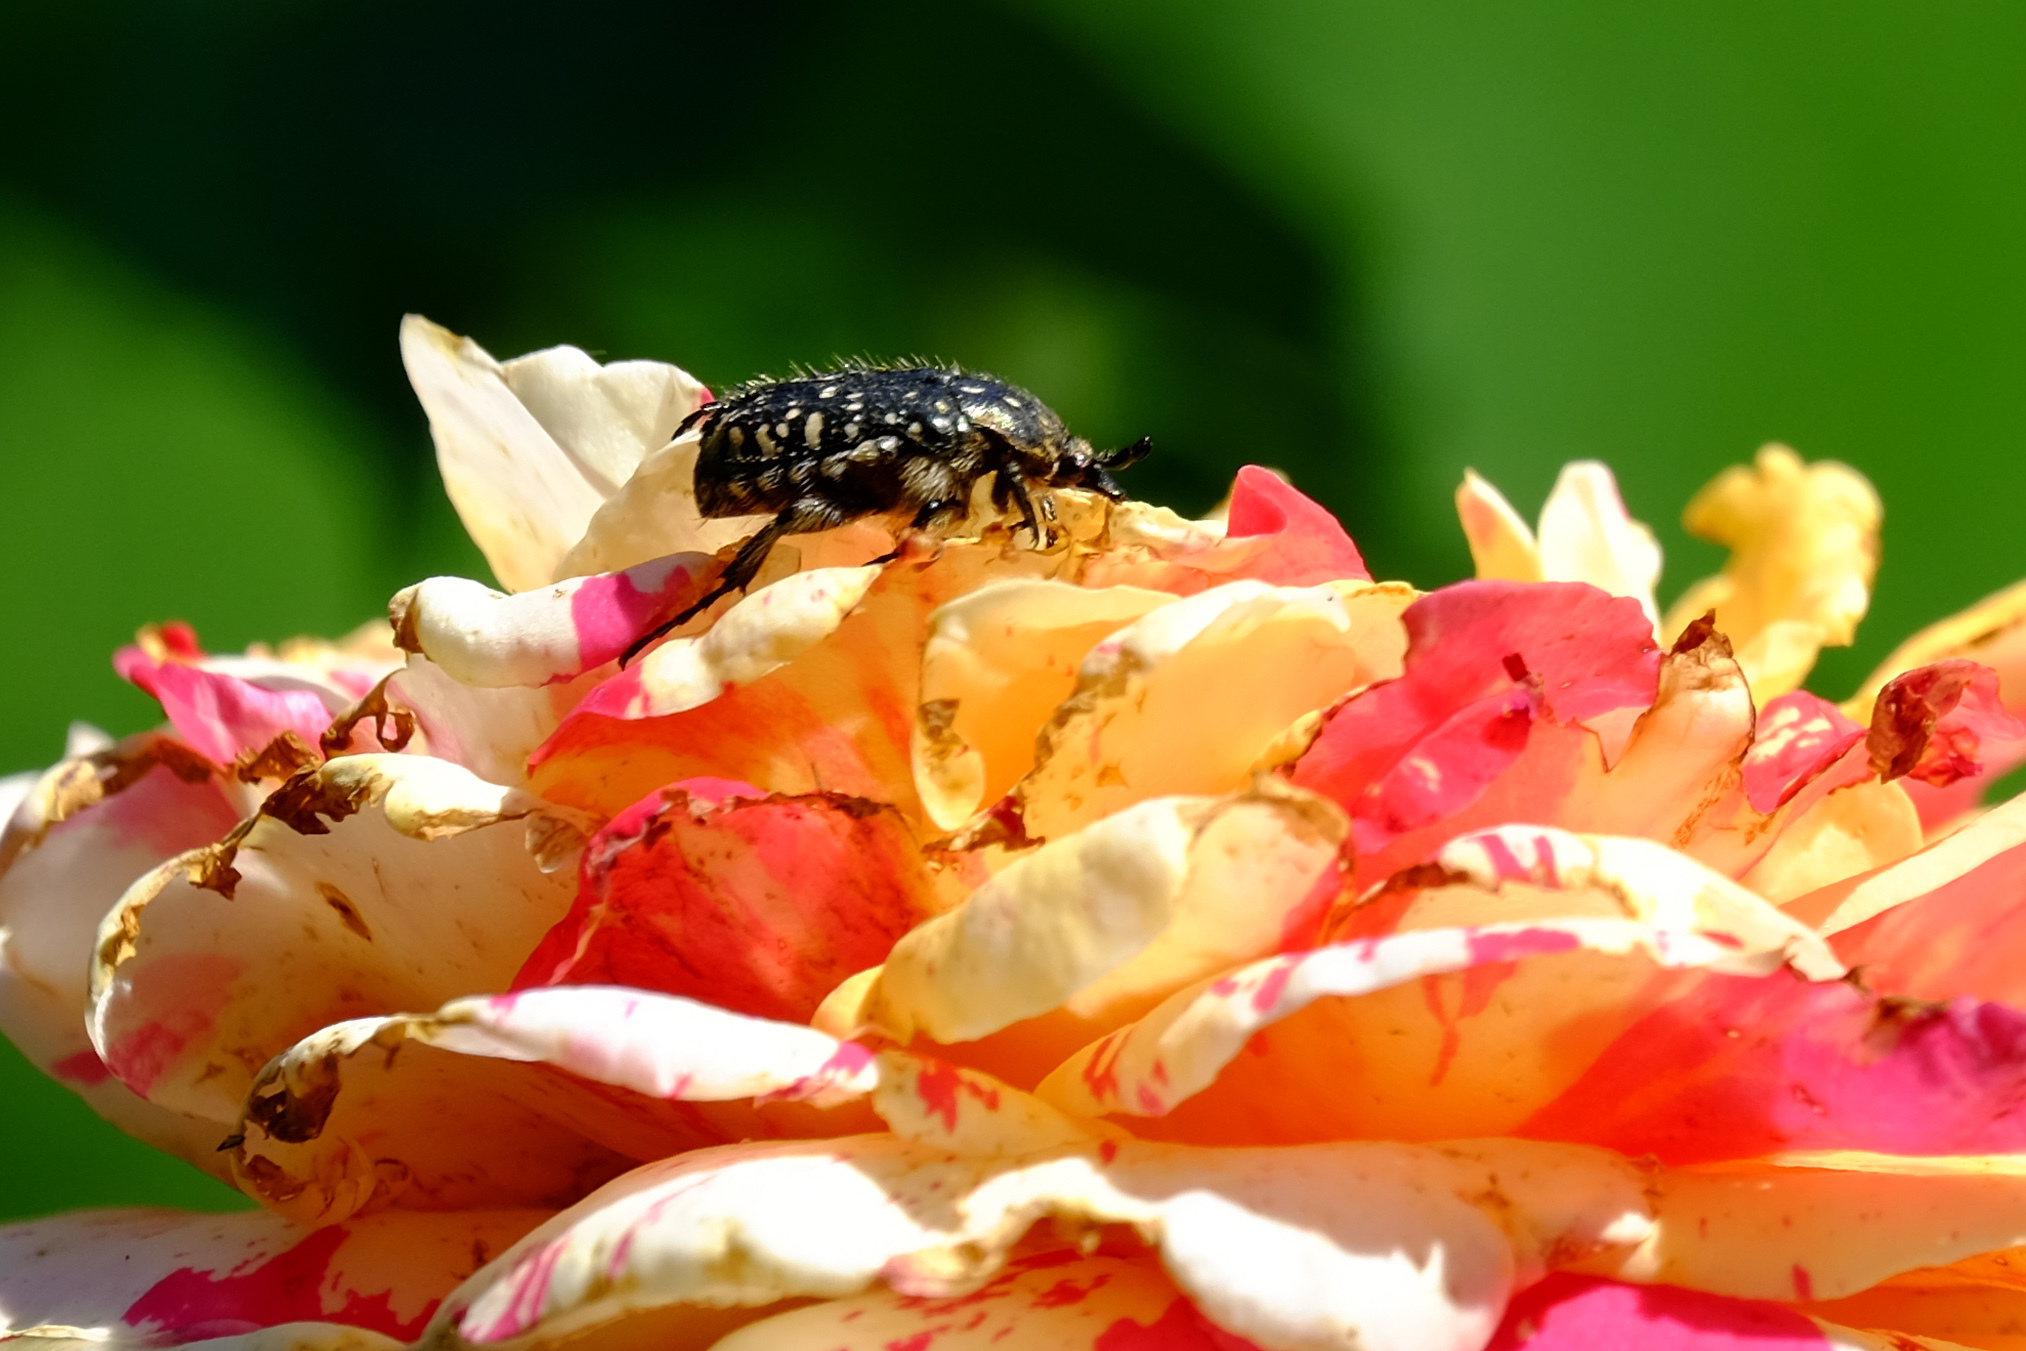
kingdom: Animalia
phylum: Arthropoda
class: Insecta
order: Coleoptera
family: Scarabaeidae
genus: Oxythyrea
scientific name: Oxythyrea funesta
